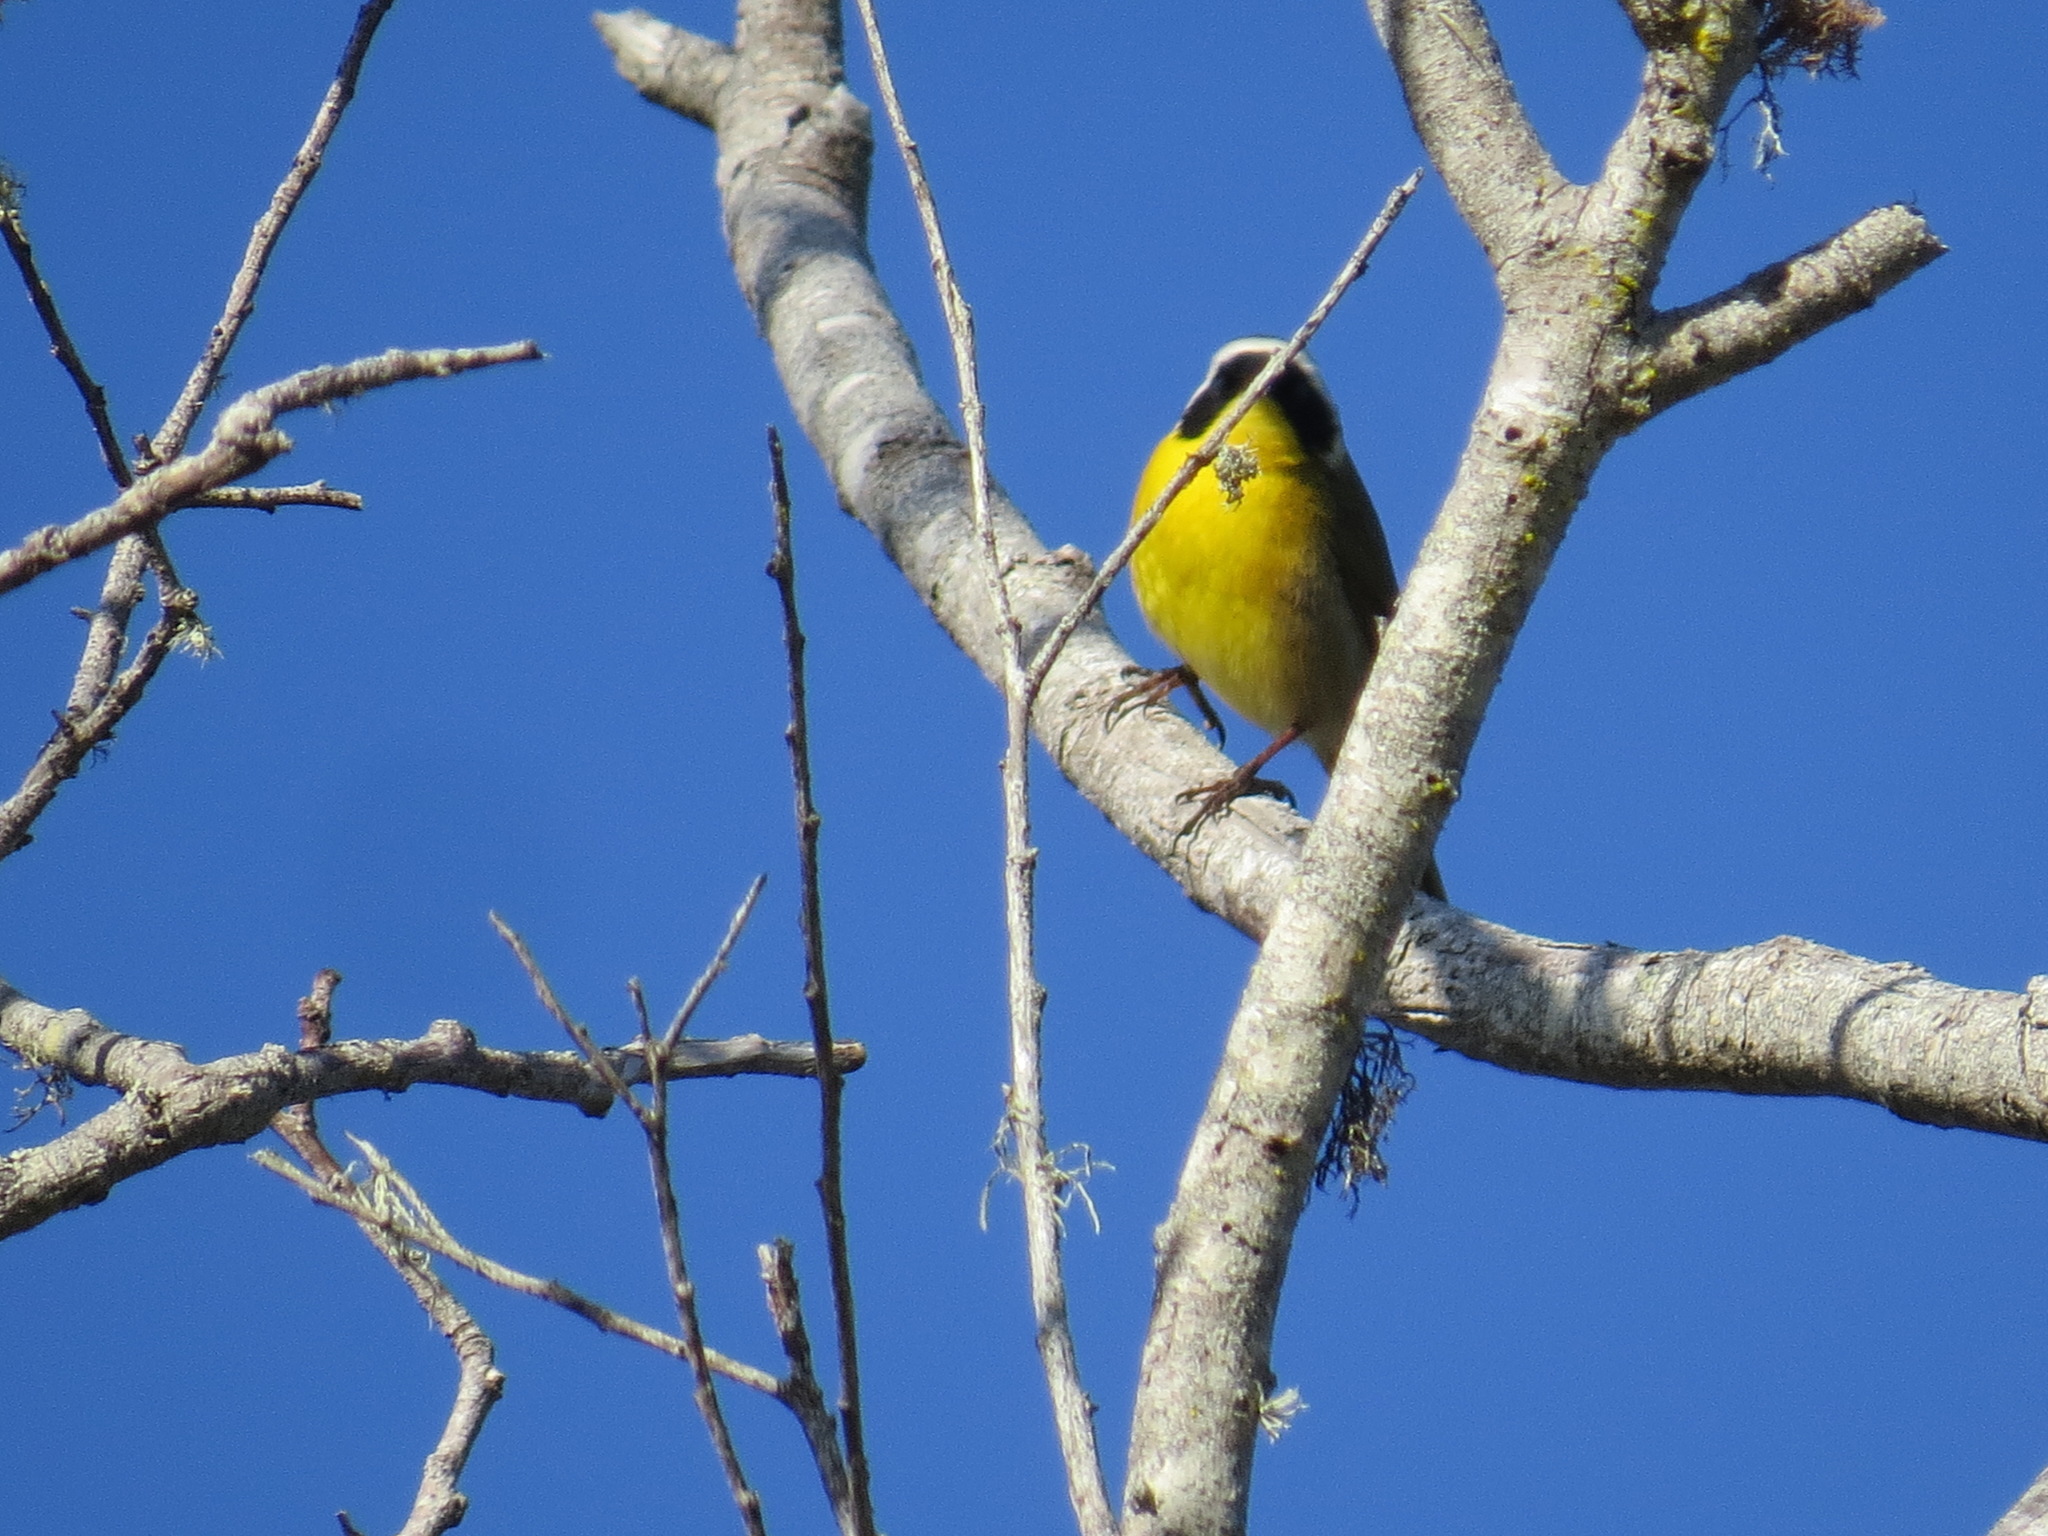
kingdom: Animalia
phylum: Chordata
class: Aves
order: Passeriformes
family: Parulidae
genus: Geothlypis
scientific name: Geothlypis trichas
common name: Common yellowthroat
